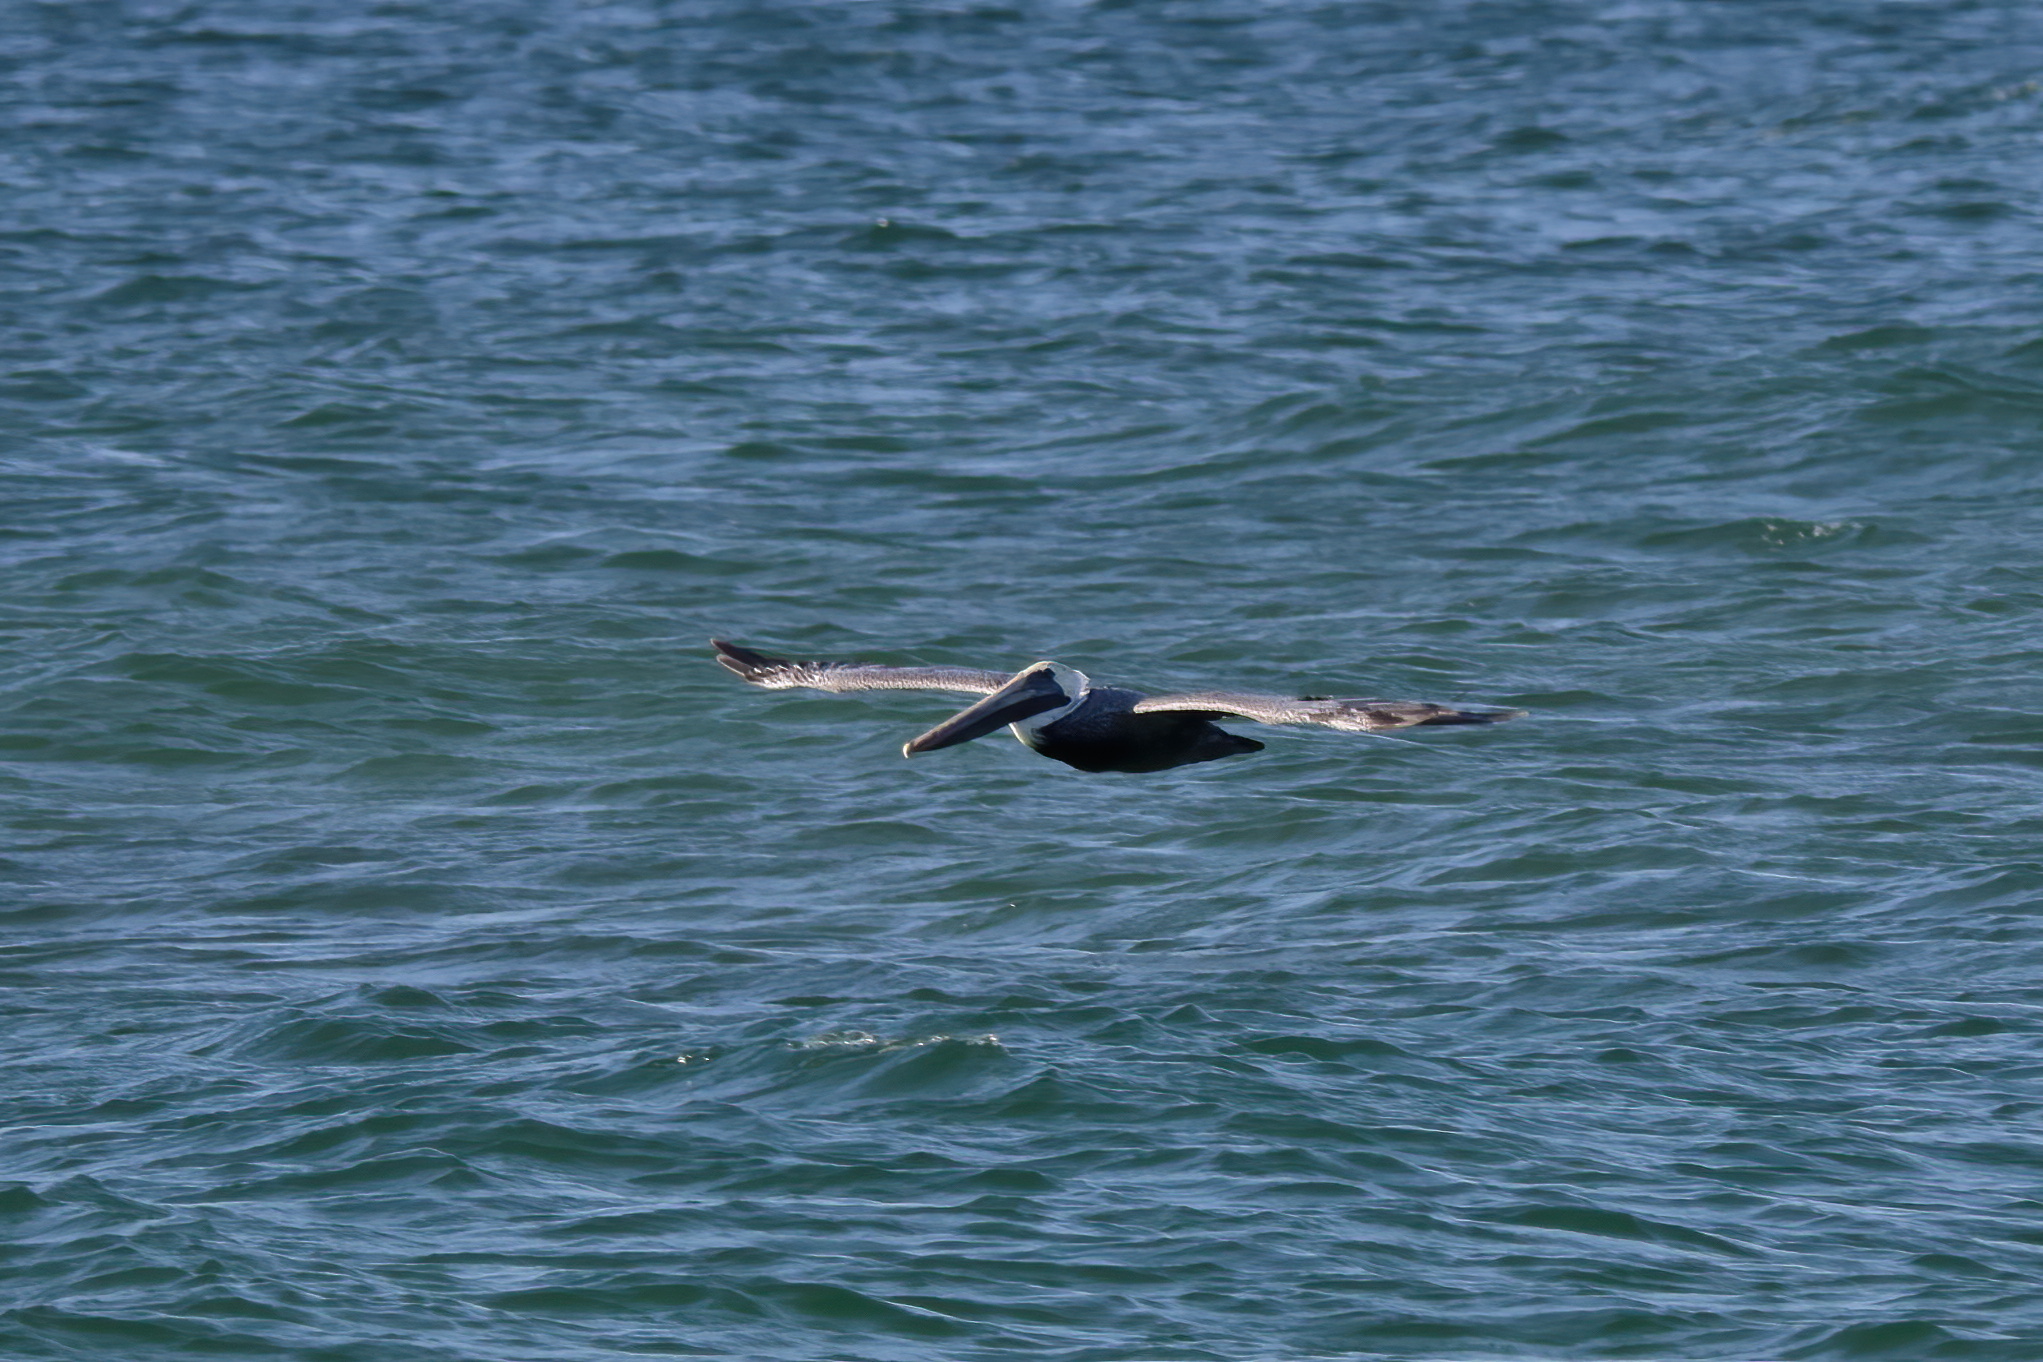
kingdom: Animalia
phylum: Chordata
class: Aves
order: Pelecaniformes
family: Pelecanidae
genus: Pelecanus
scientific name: Pelecanus occidentalis
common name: Brown pelican
